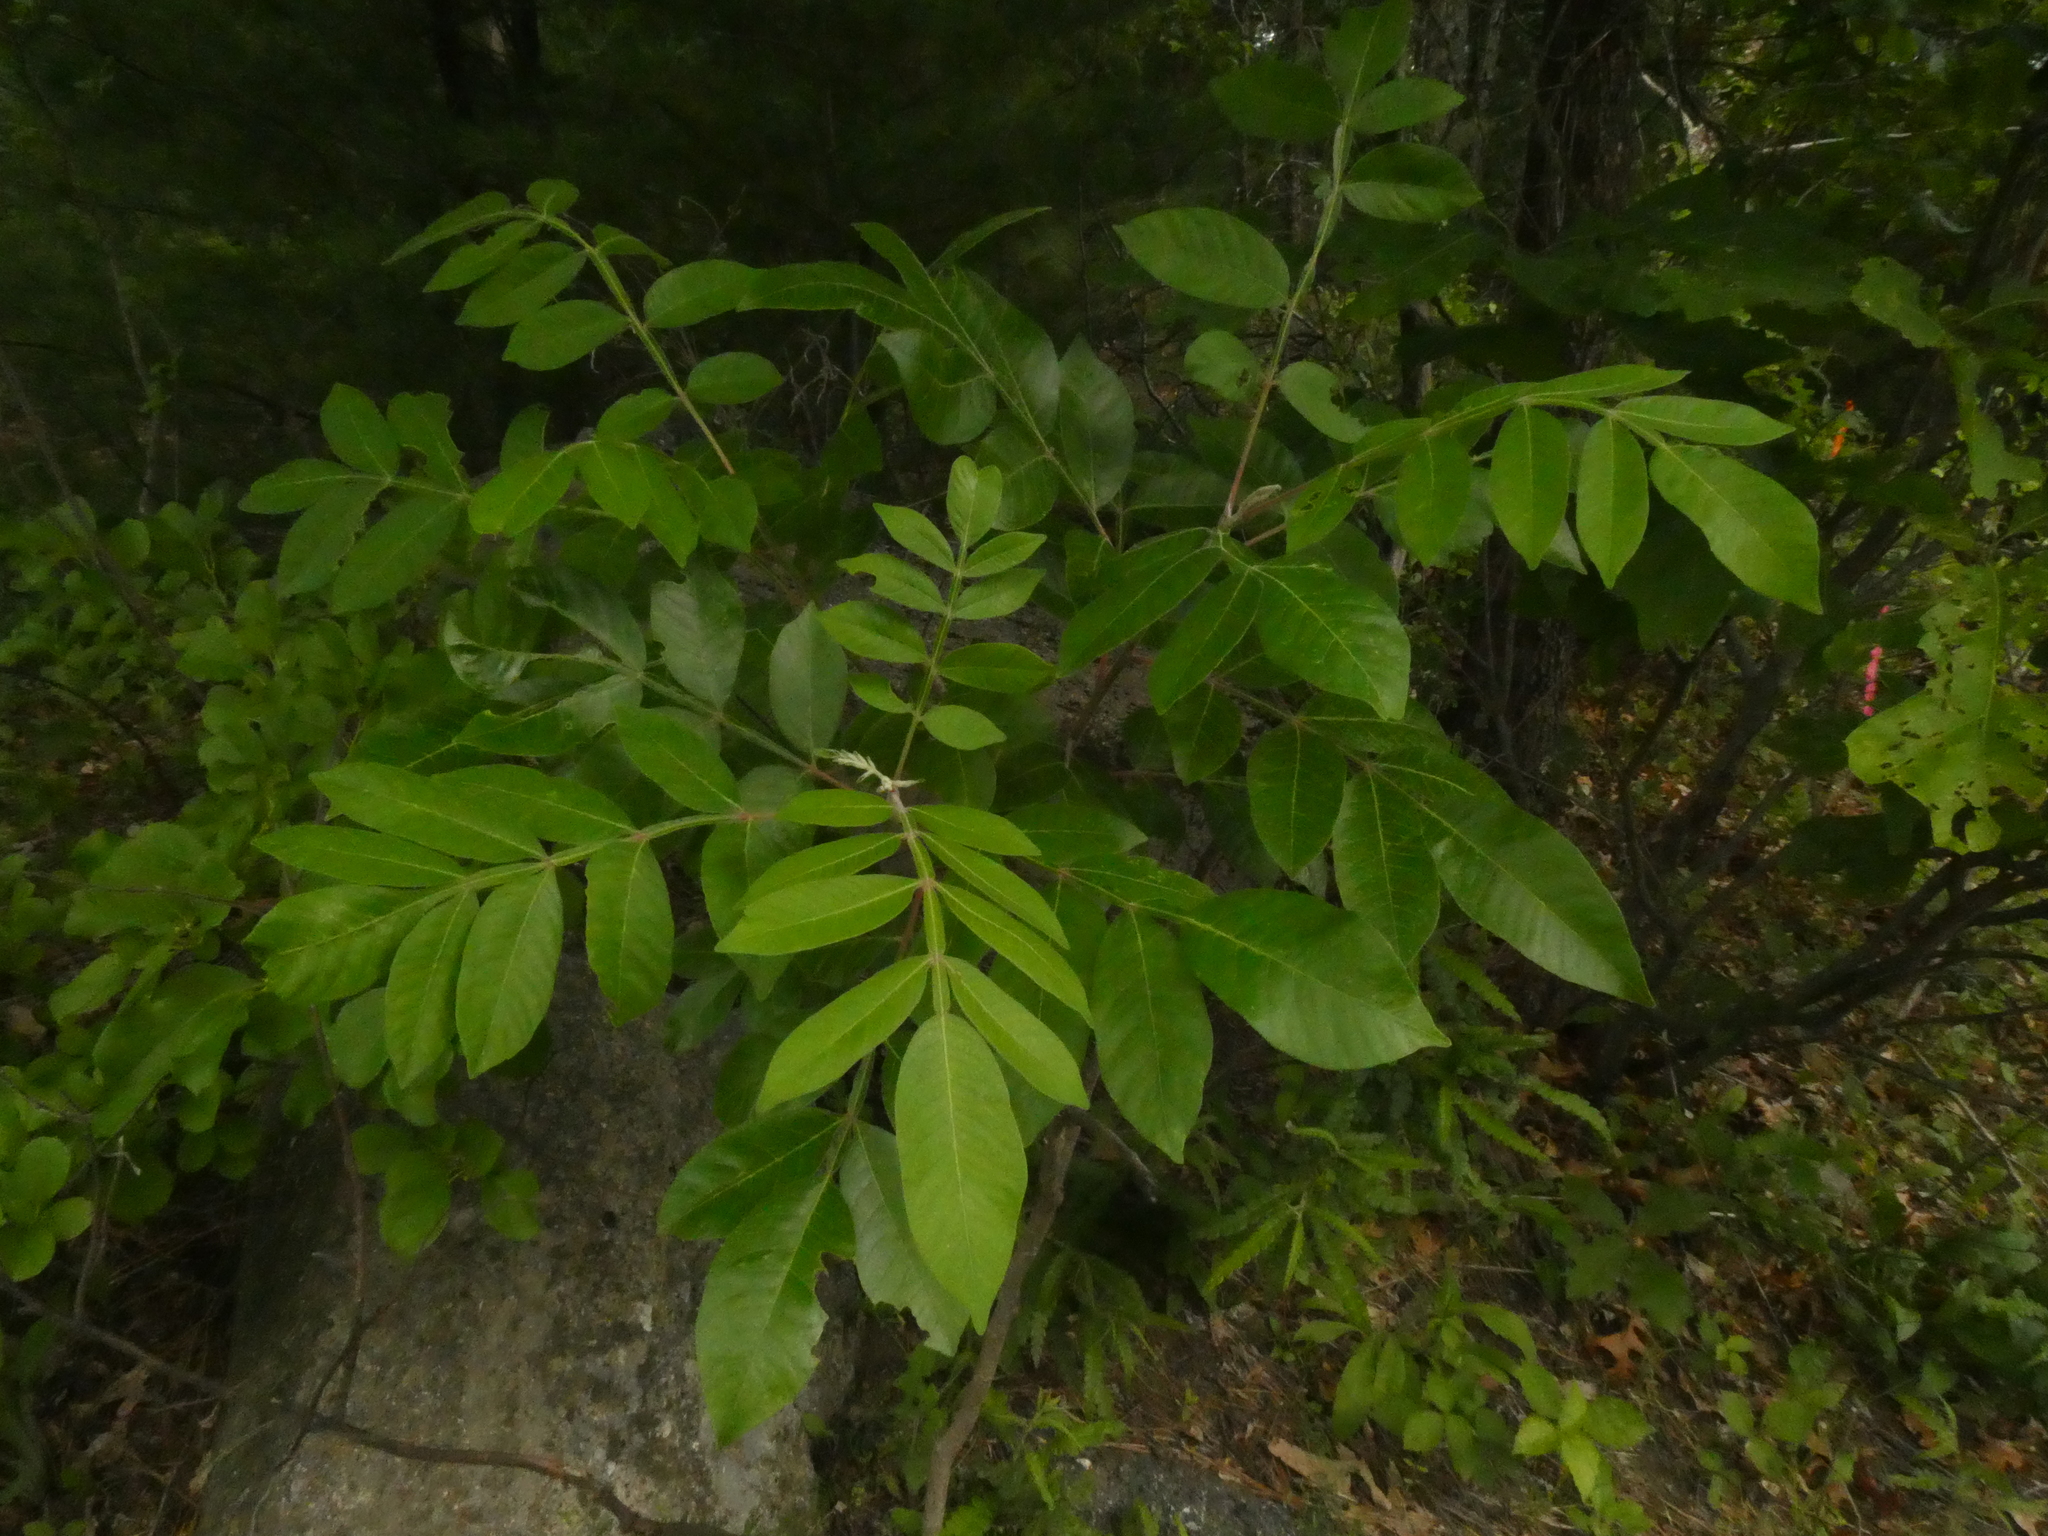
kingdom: Plantae
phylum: Tracheophyta
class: Magnoliopsida
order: Sapindales
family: Anacardiaceae
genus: Rhus
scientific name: Rhus copallina
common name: Shining sumac
